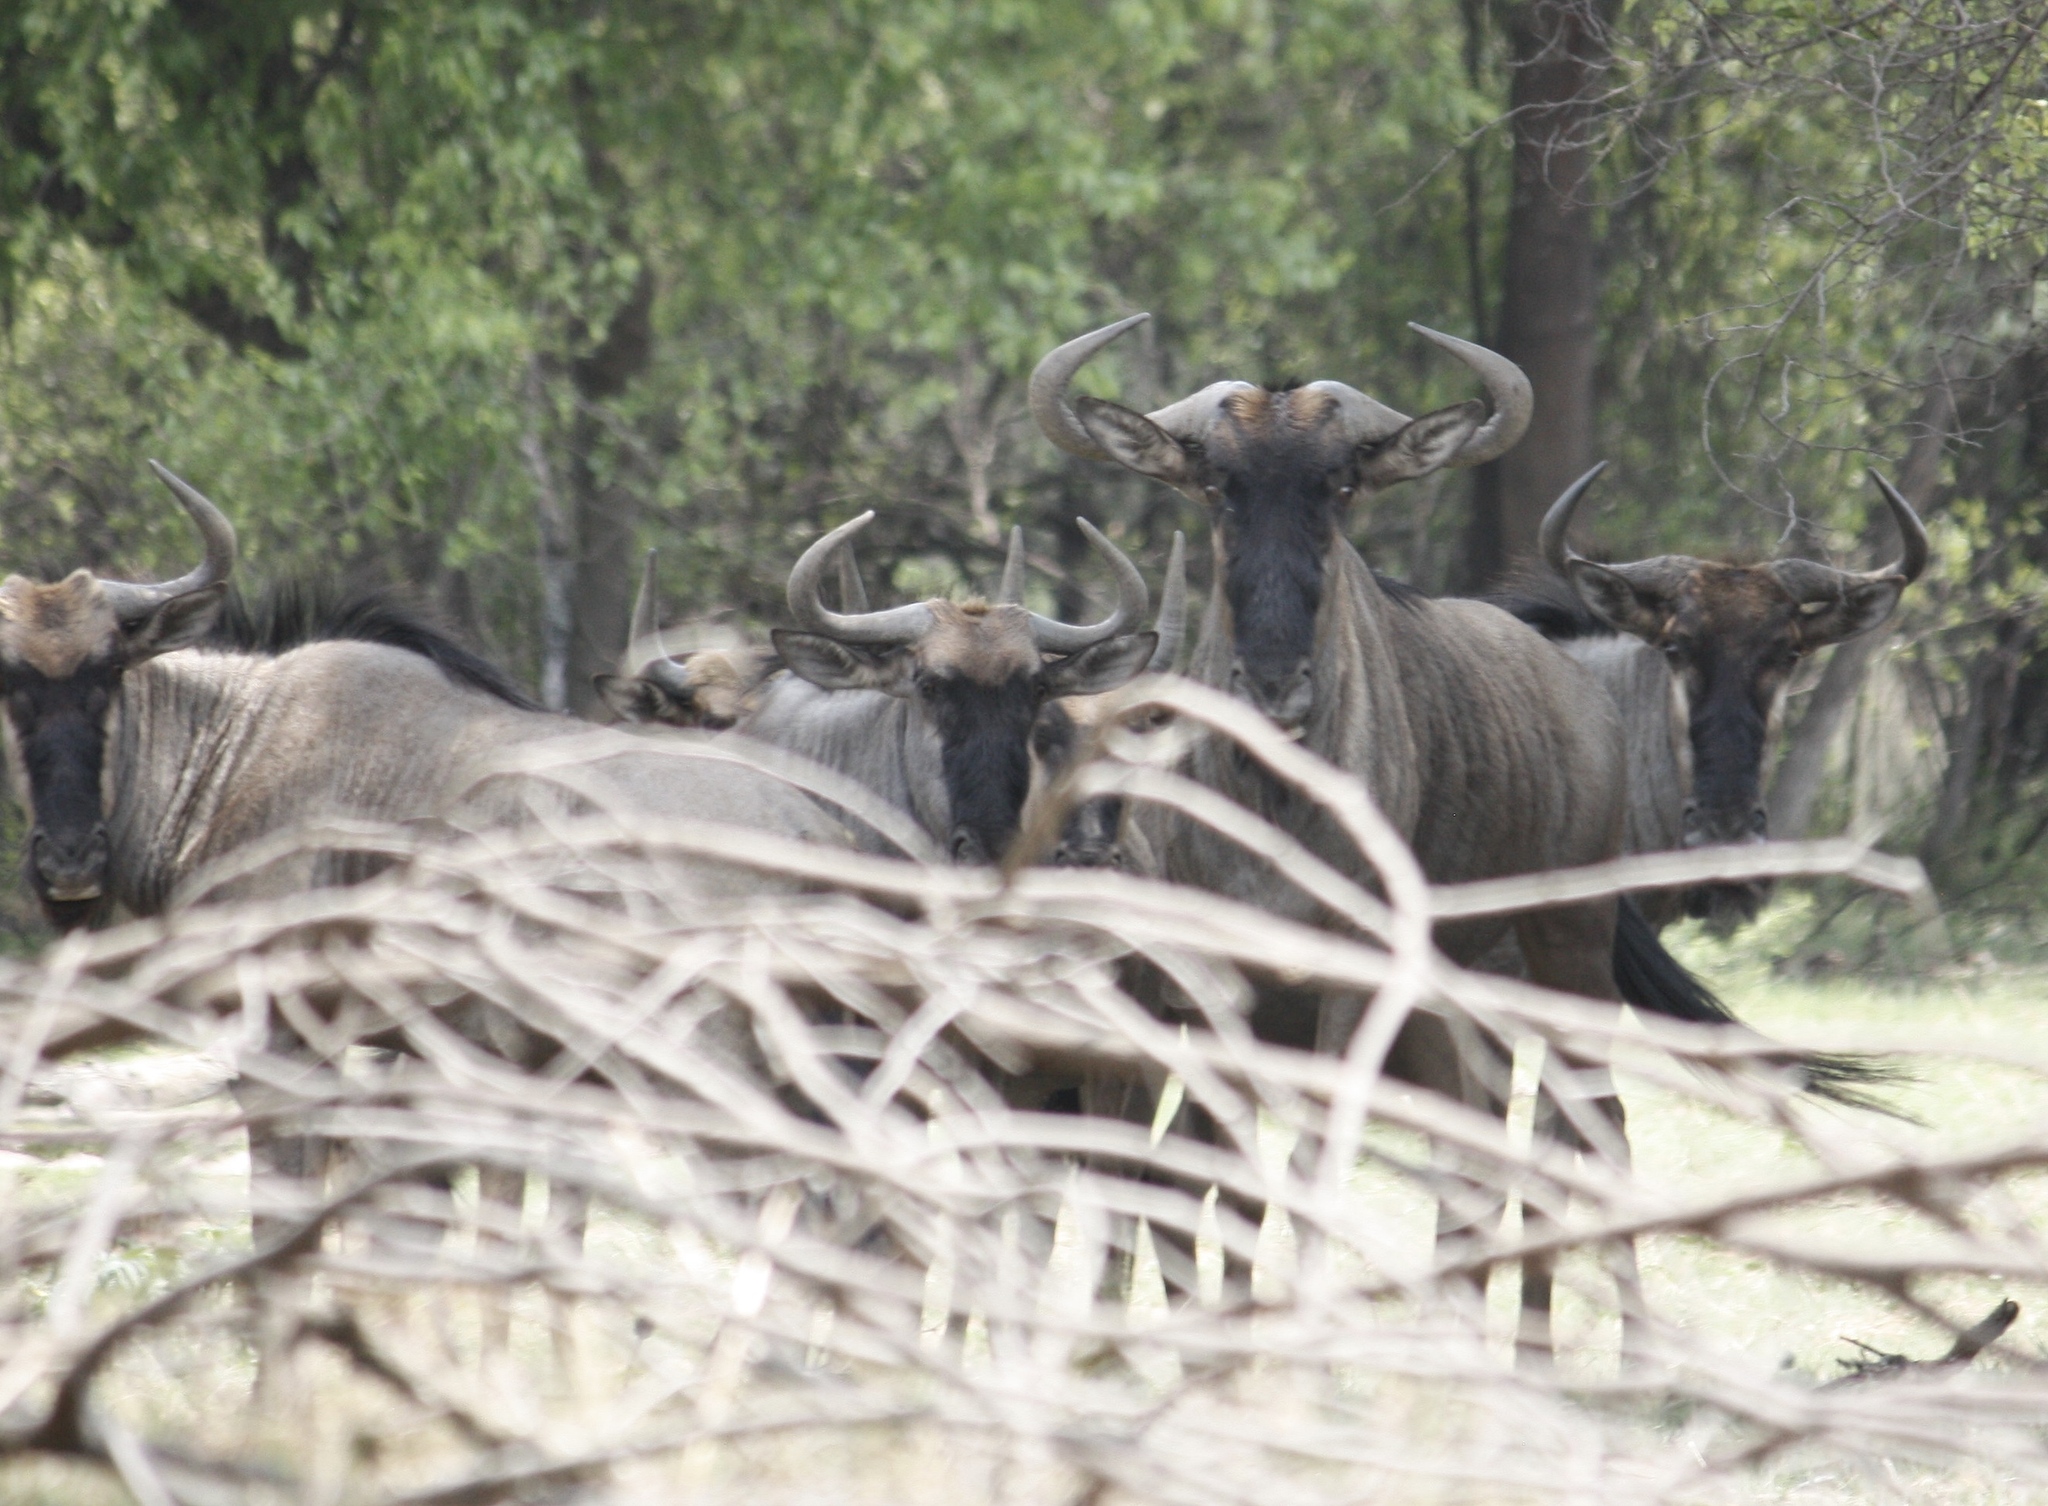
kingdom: Animalia
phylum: Chordata
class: Mammalia
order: Artiodactyla
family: Bovidae
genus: Connochaetes
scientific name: Connochaetes taurinus
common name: Blue wildebeest
